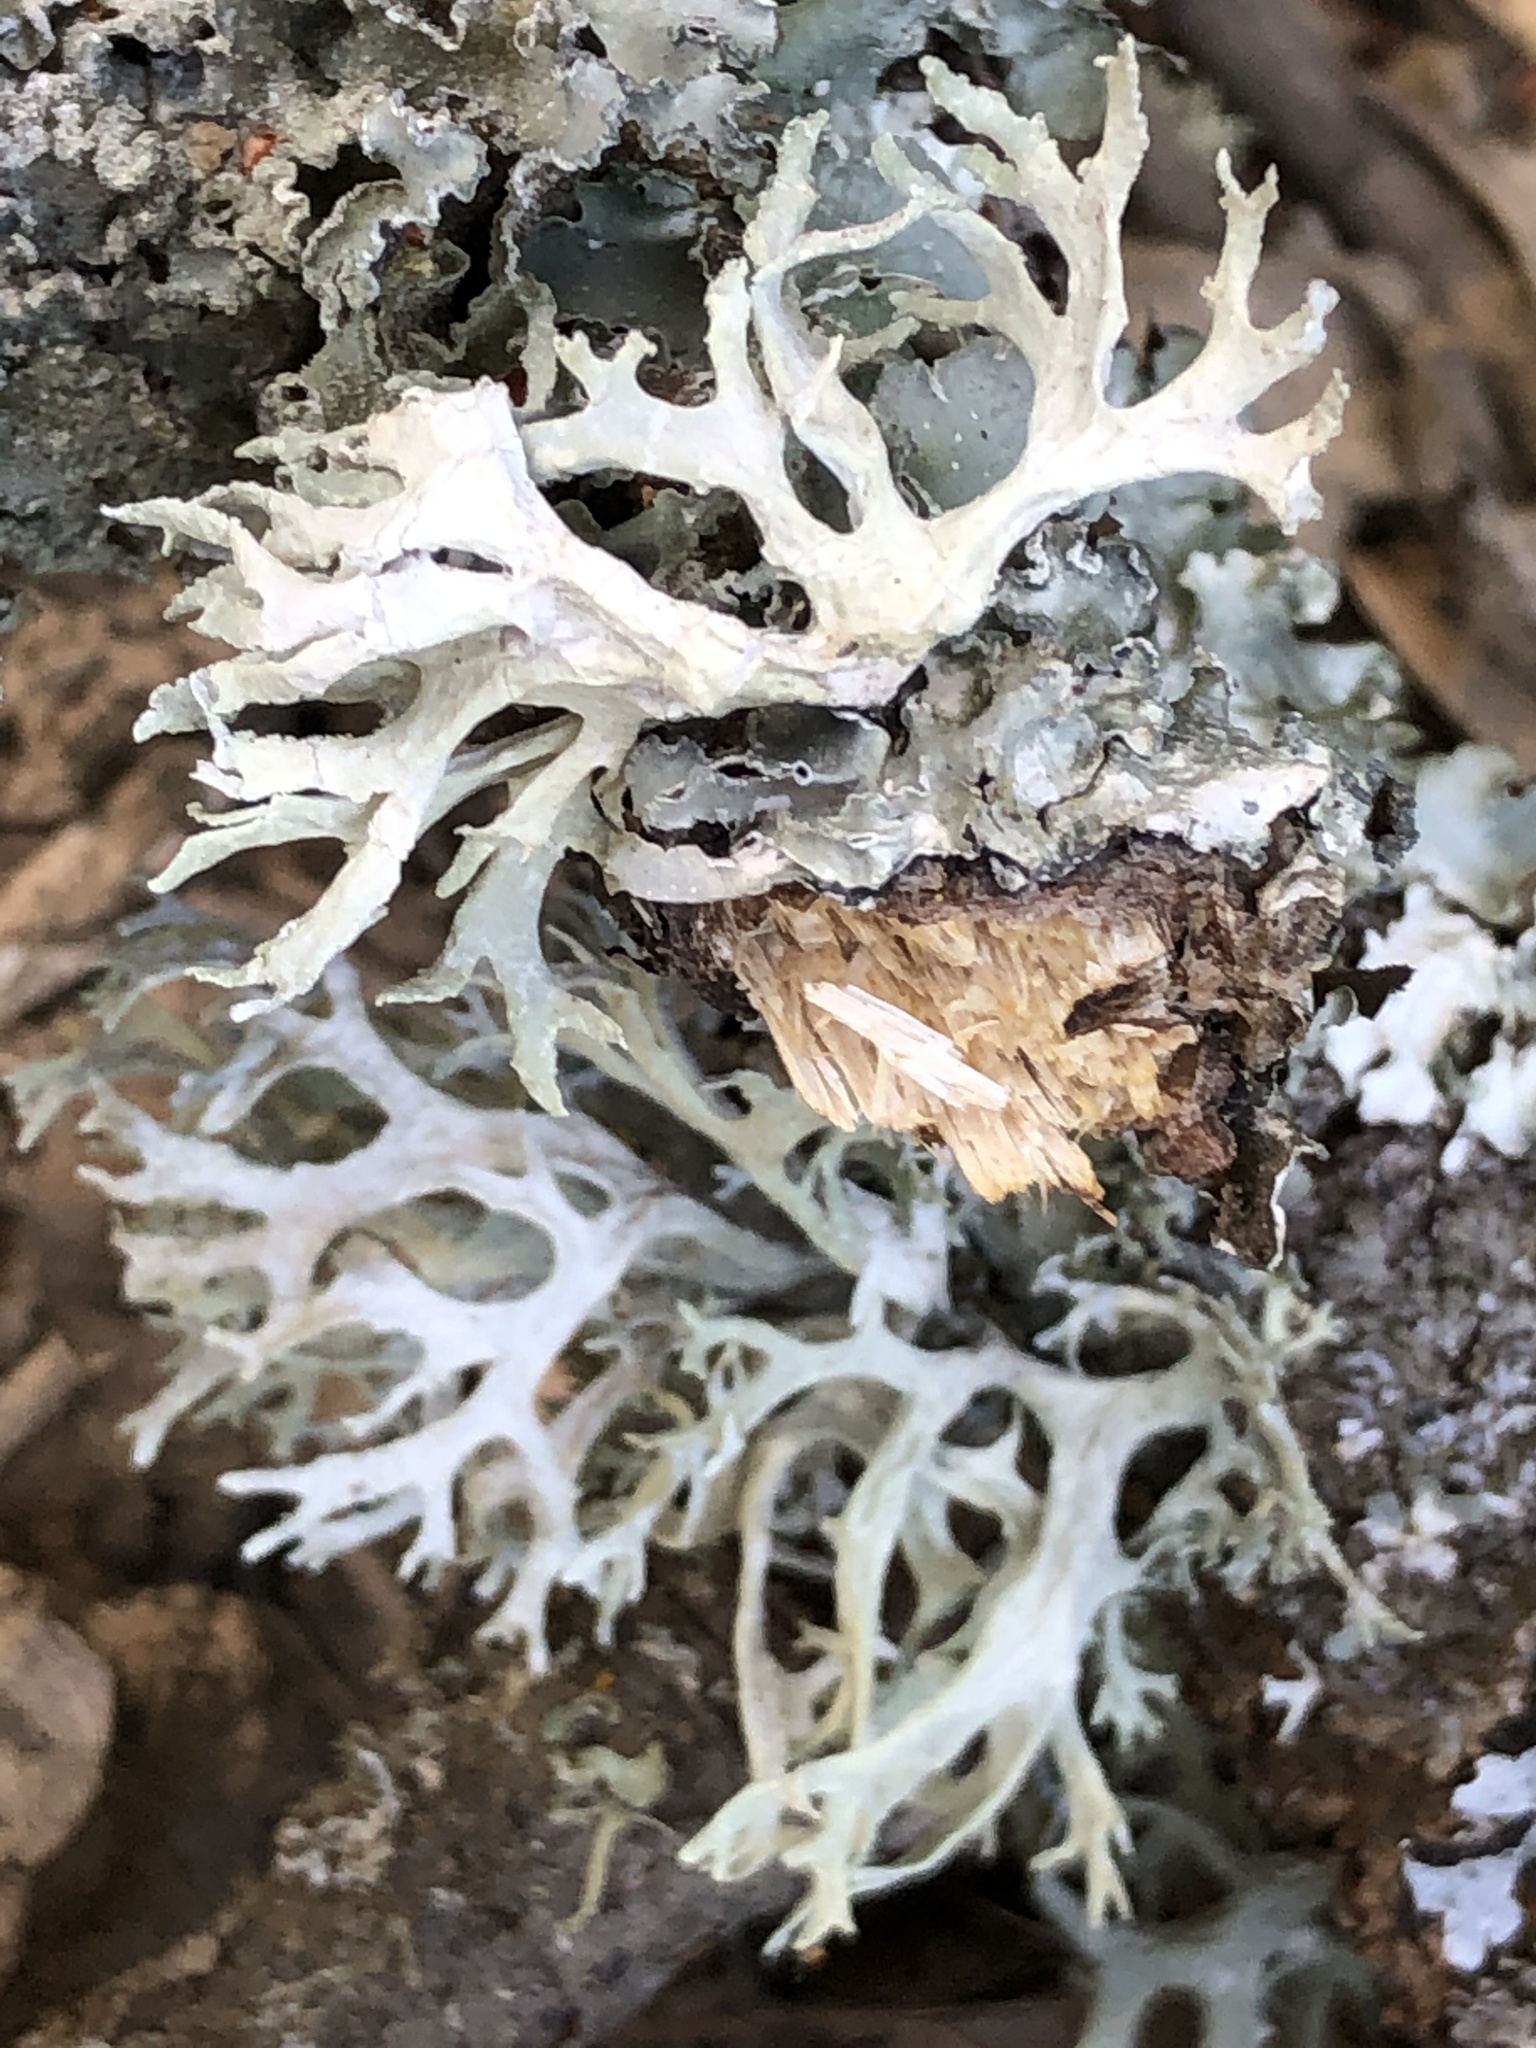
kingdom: Fungi
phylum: Ascomycota
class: Lecanoromycetes
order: Lecanorales
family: Parmeliaceae
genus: Evernia
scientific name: Evernia prunastri
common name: Oak moss
